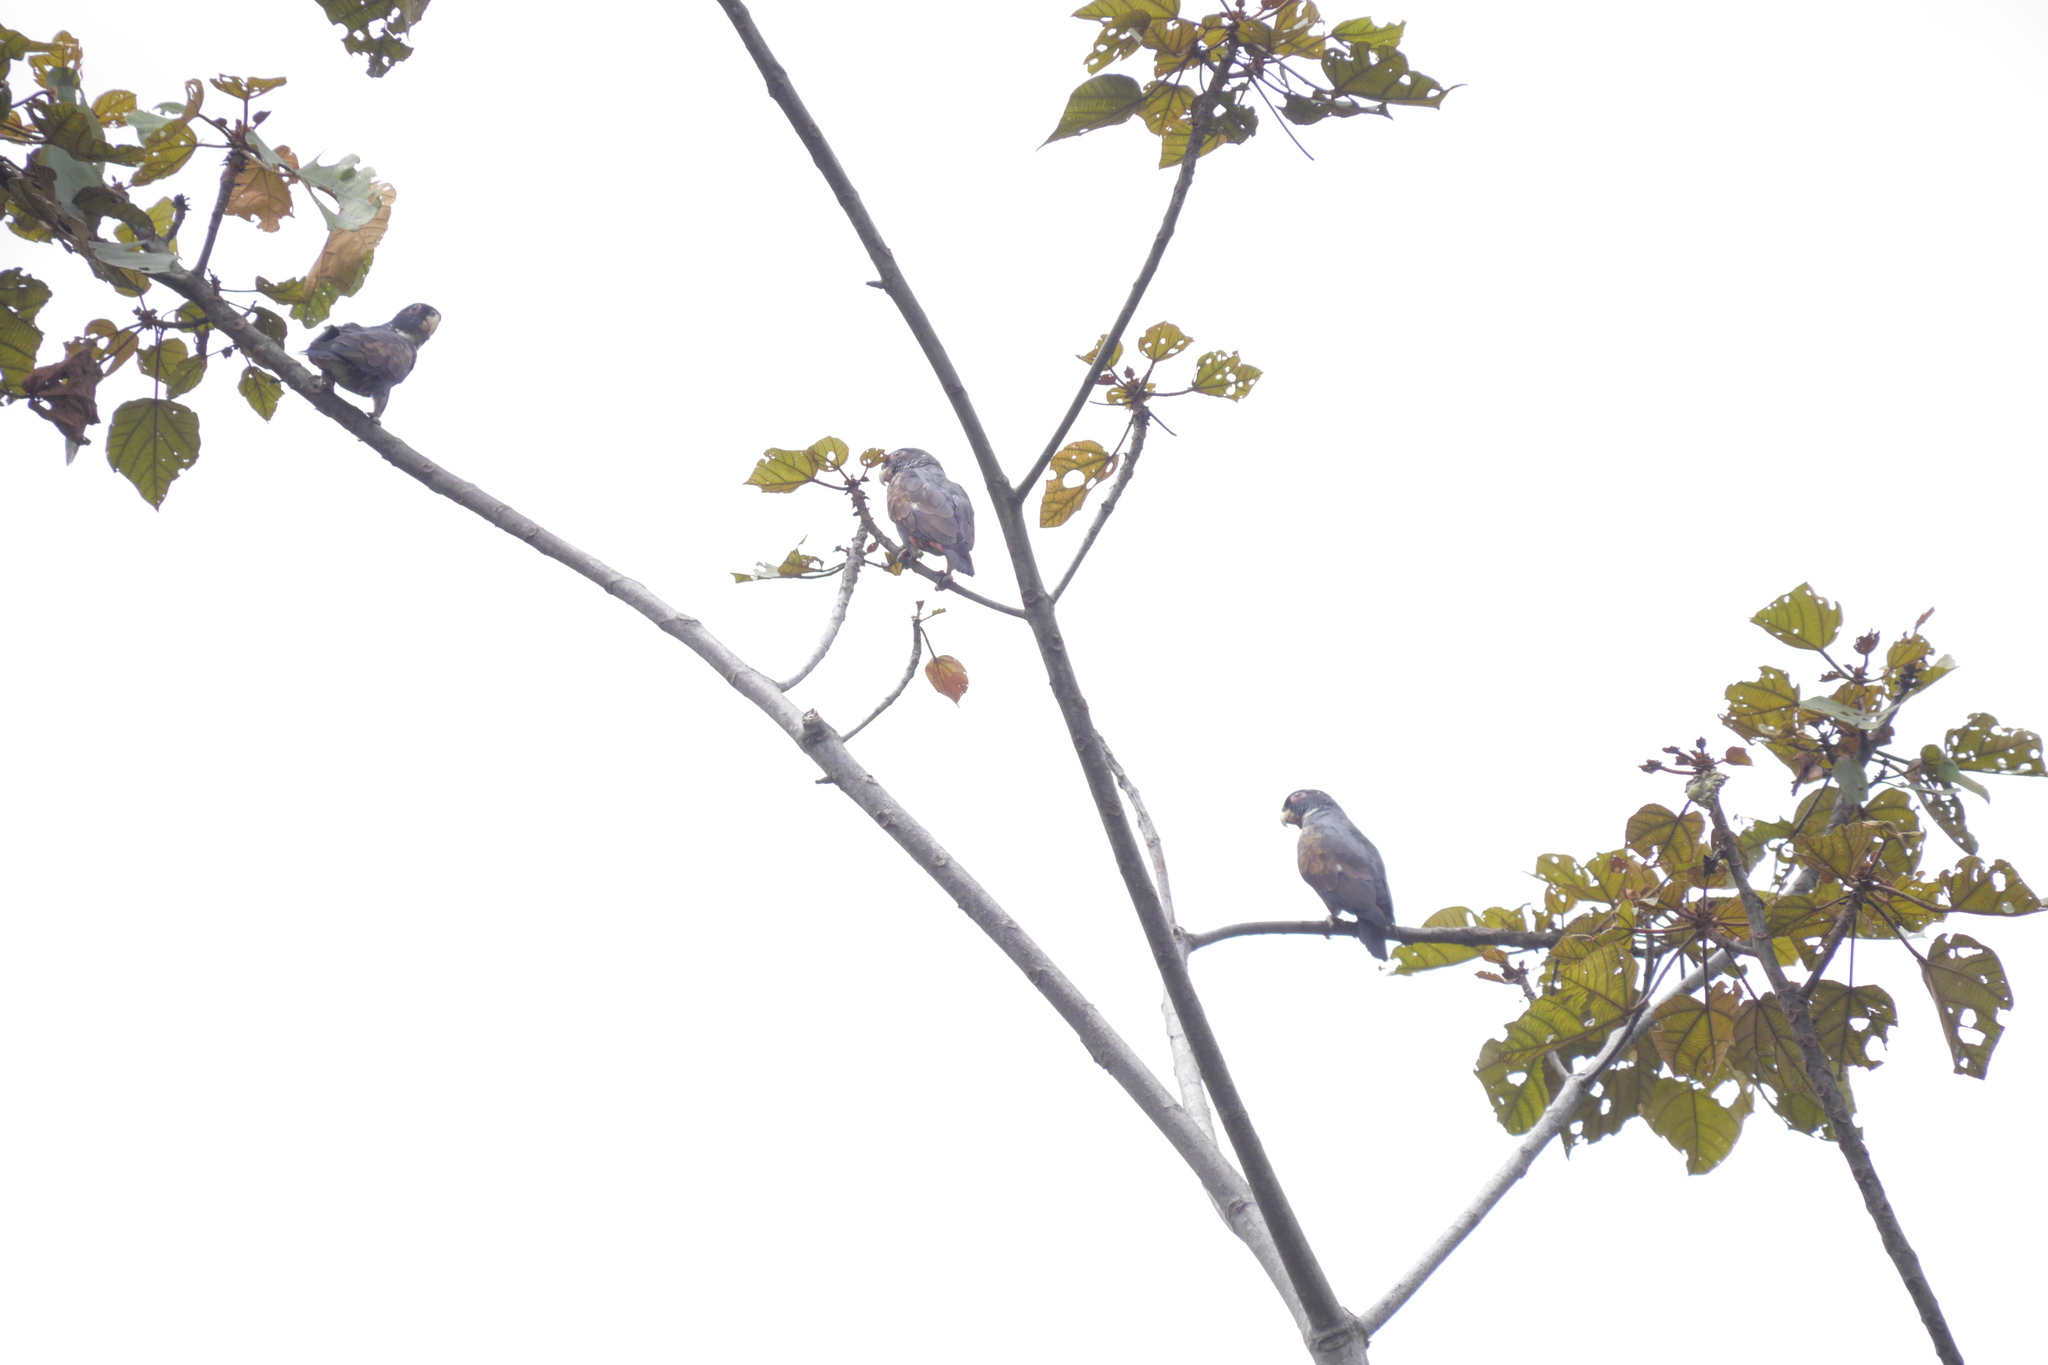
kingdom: Animalia
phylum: Chordata
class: Aves
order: Psittaciformes
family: Psittacidae
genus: Pionus
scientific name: Pionus chalcopterus
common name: Bronze-winged parrot
